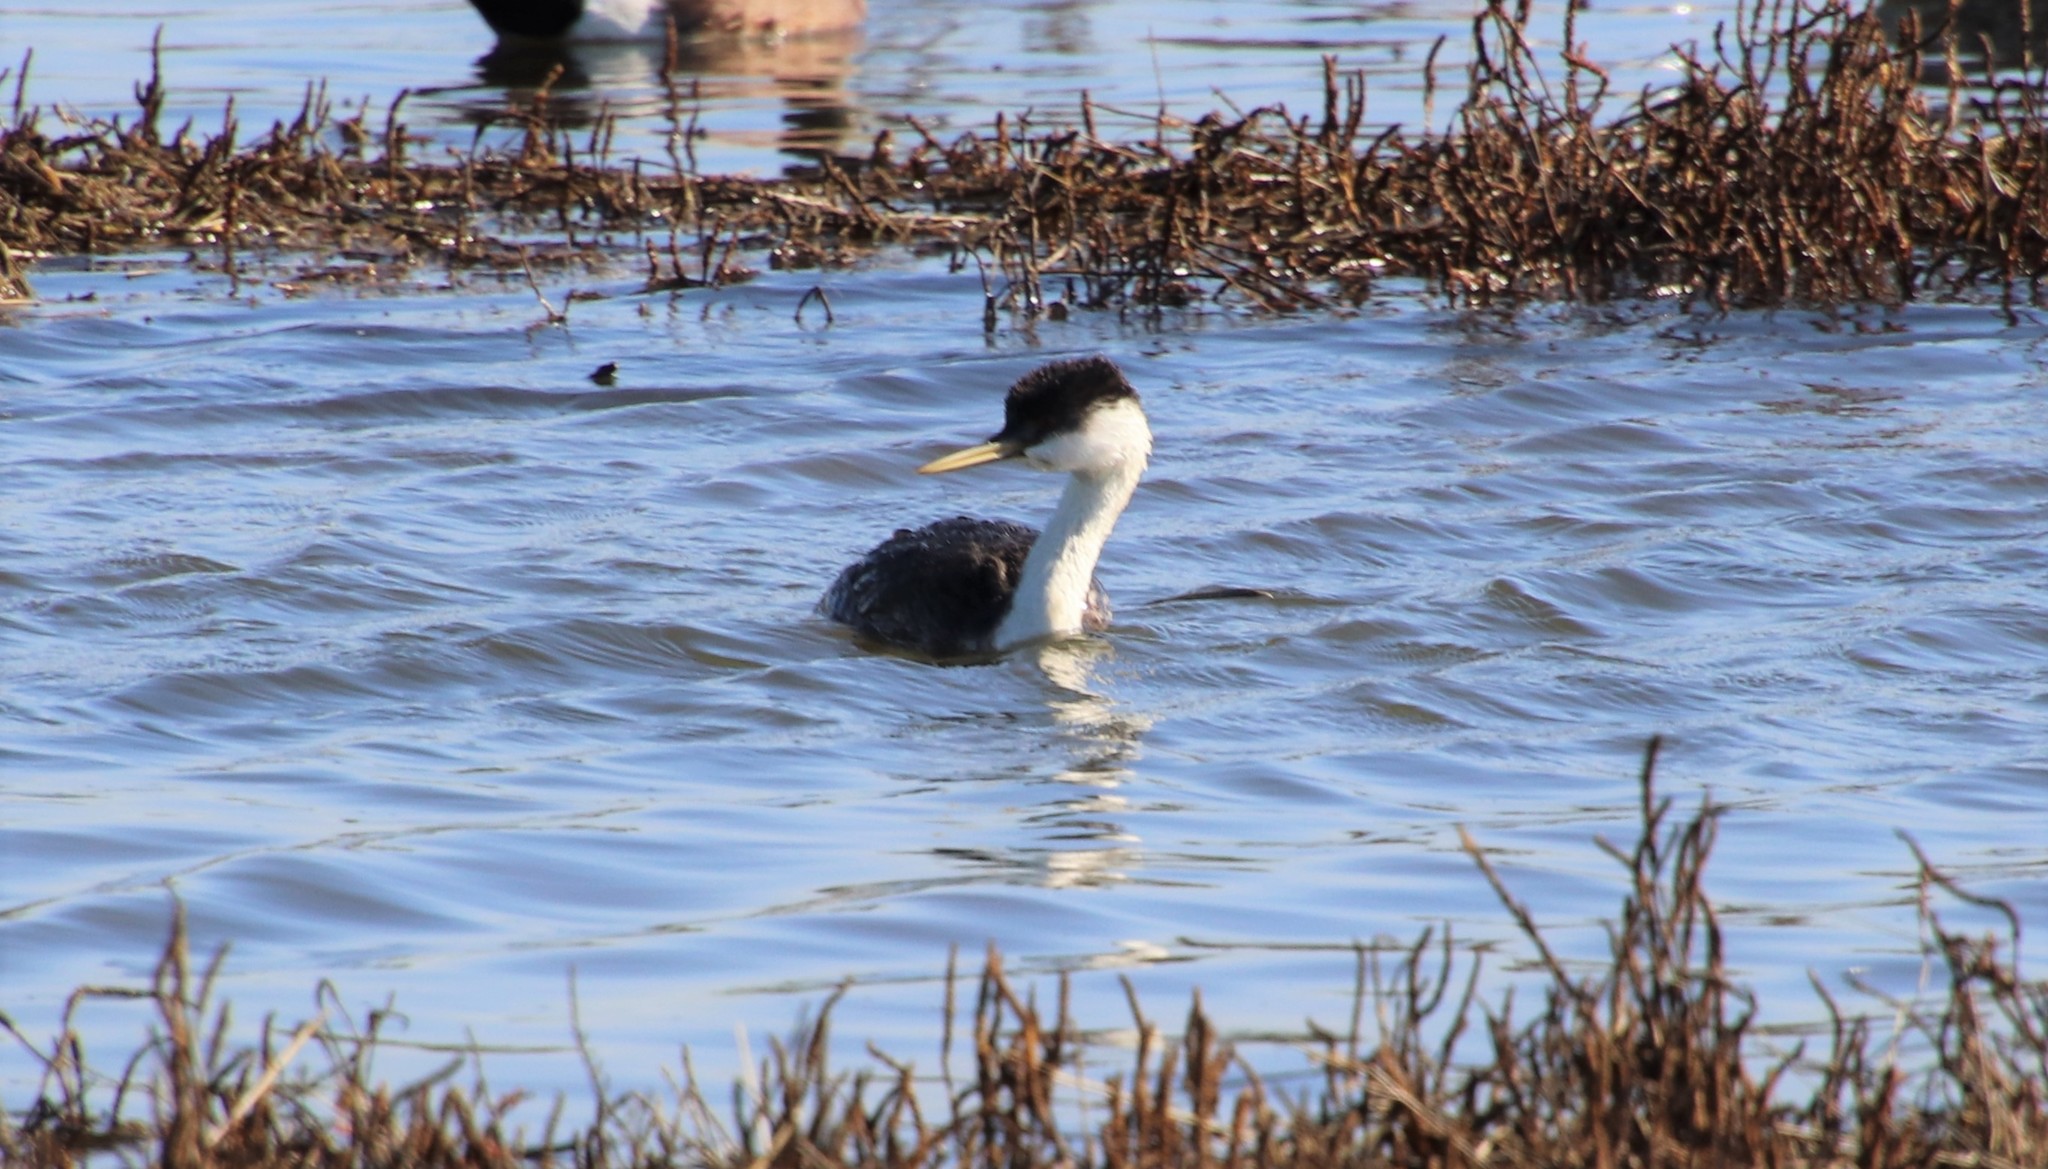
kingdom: Animalia
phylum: Chordata
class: Aves
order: Podicipediformes
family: Podicipedidae
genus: Aechmophorus
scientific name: Aechmophorus occidentalis
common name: Western grebe
